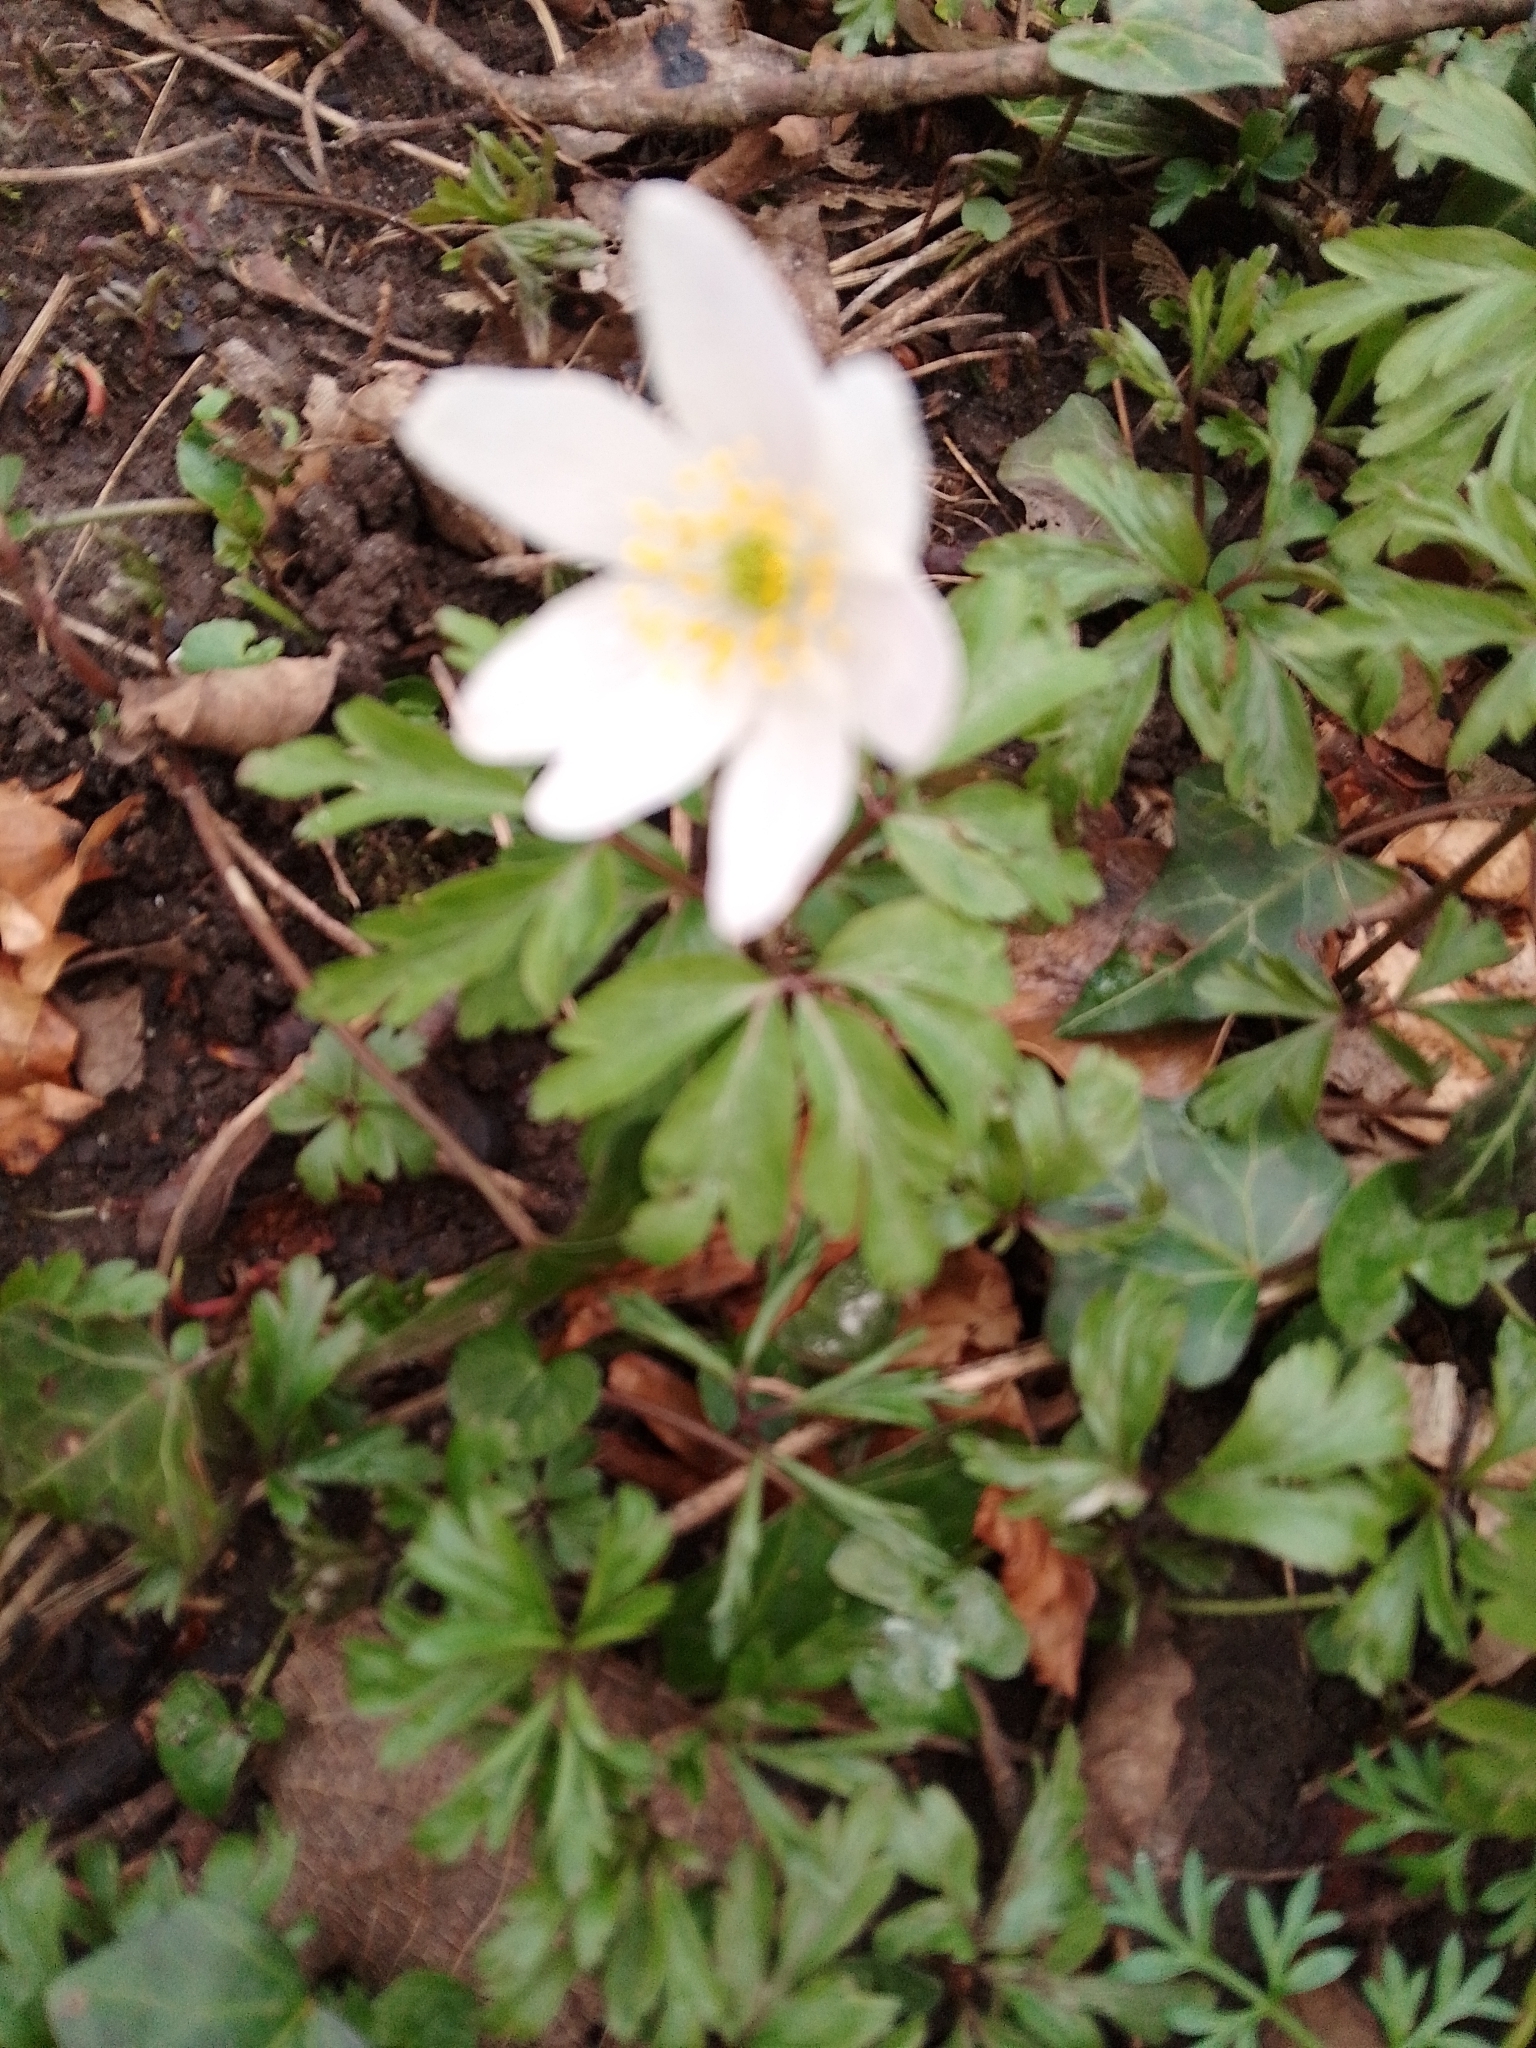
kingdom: Plantae
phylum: Tracheophyta
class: Magnoliopsida
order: Ranunculales
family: Ranunculaceae
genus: Anemone
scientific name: Anemone nemorosa
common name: Wood anemone
